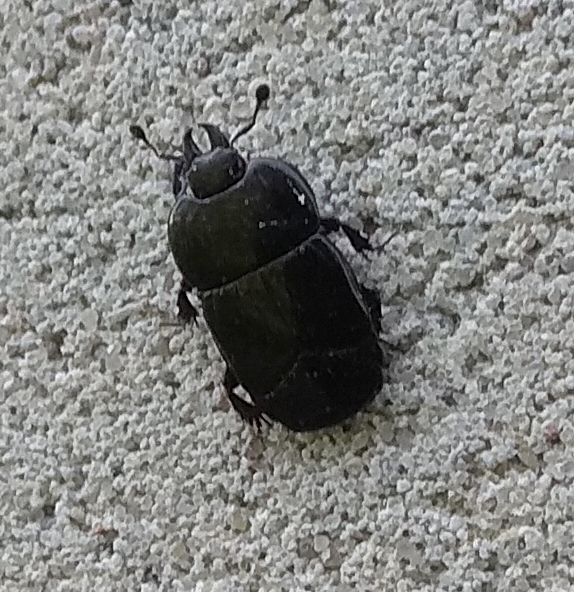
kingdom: Animalia
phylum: Arthropoda
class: Insecta
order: Coleoptera
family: Histeridae
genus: Hololepta
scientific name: Hololepta plana
